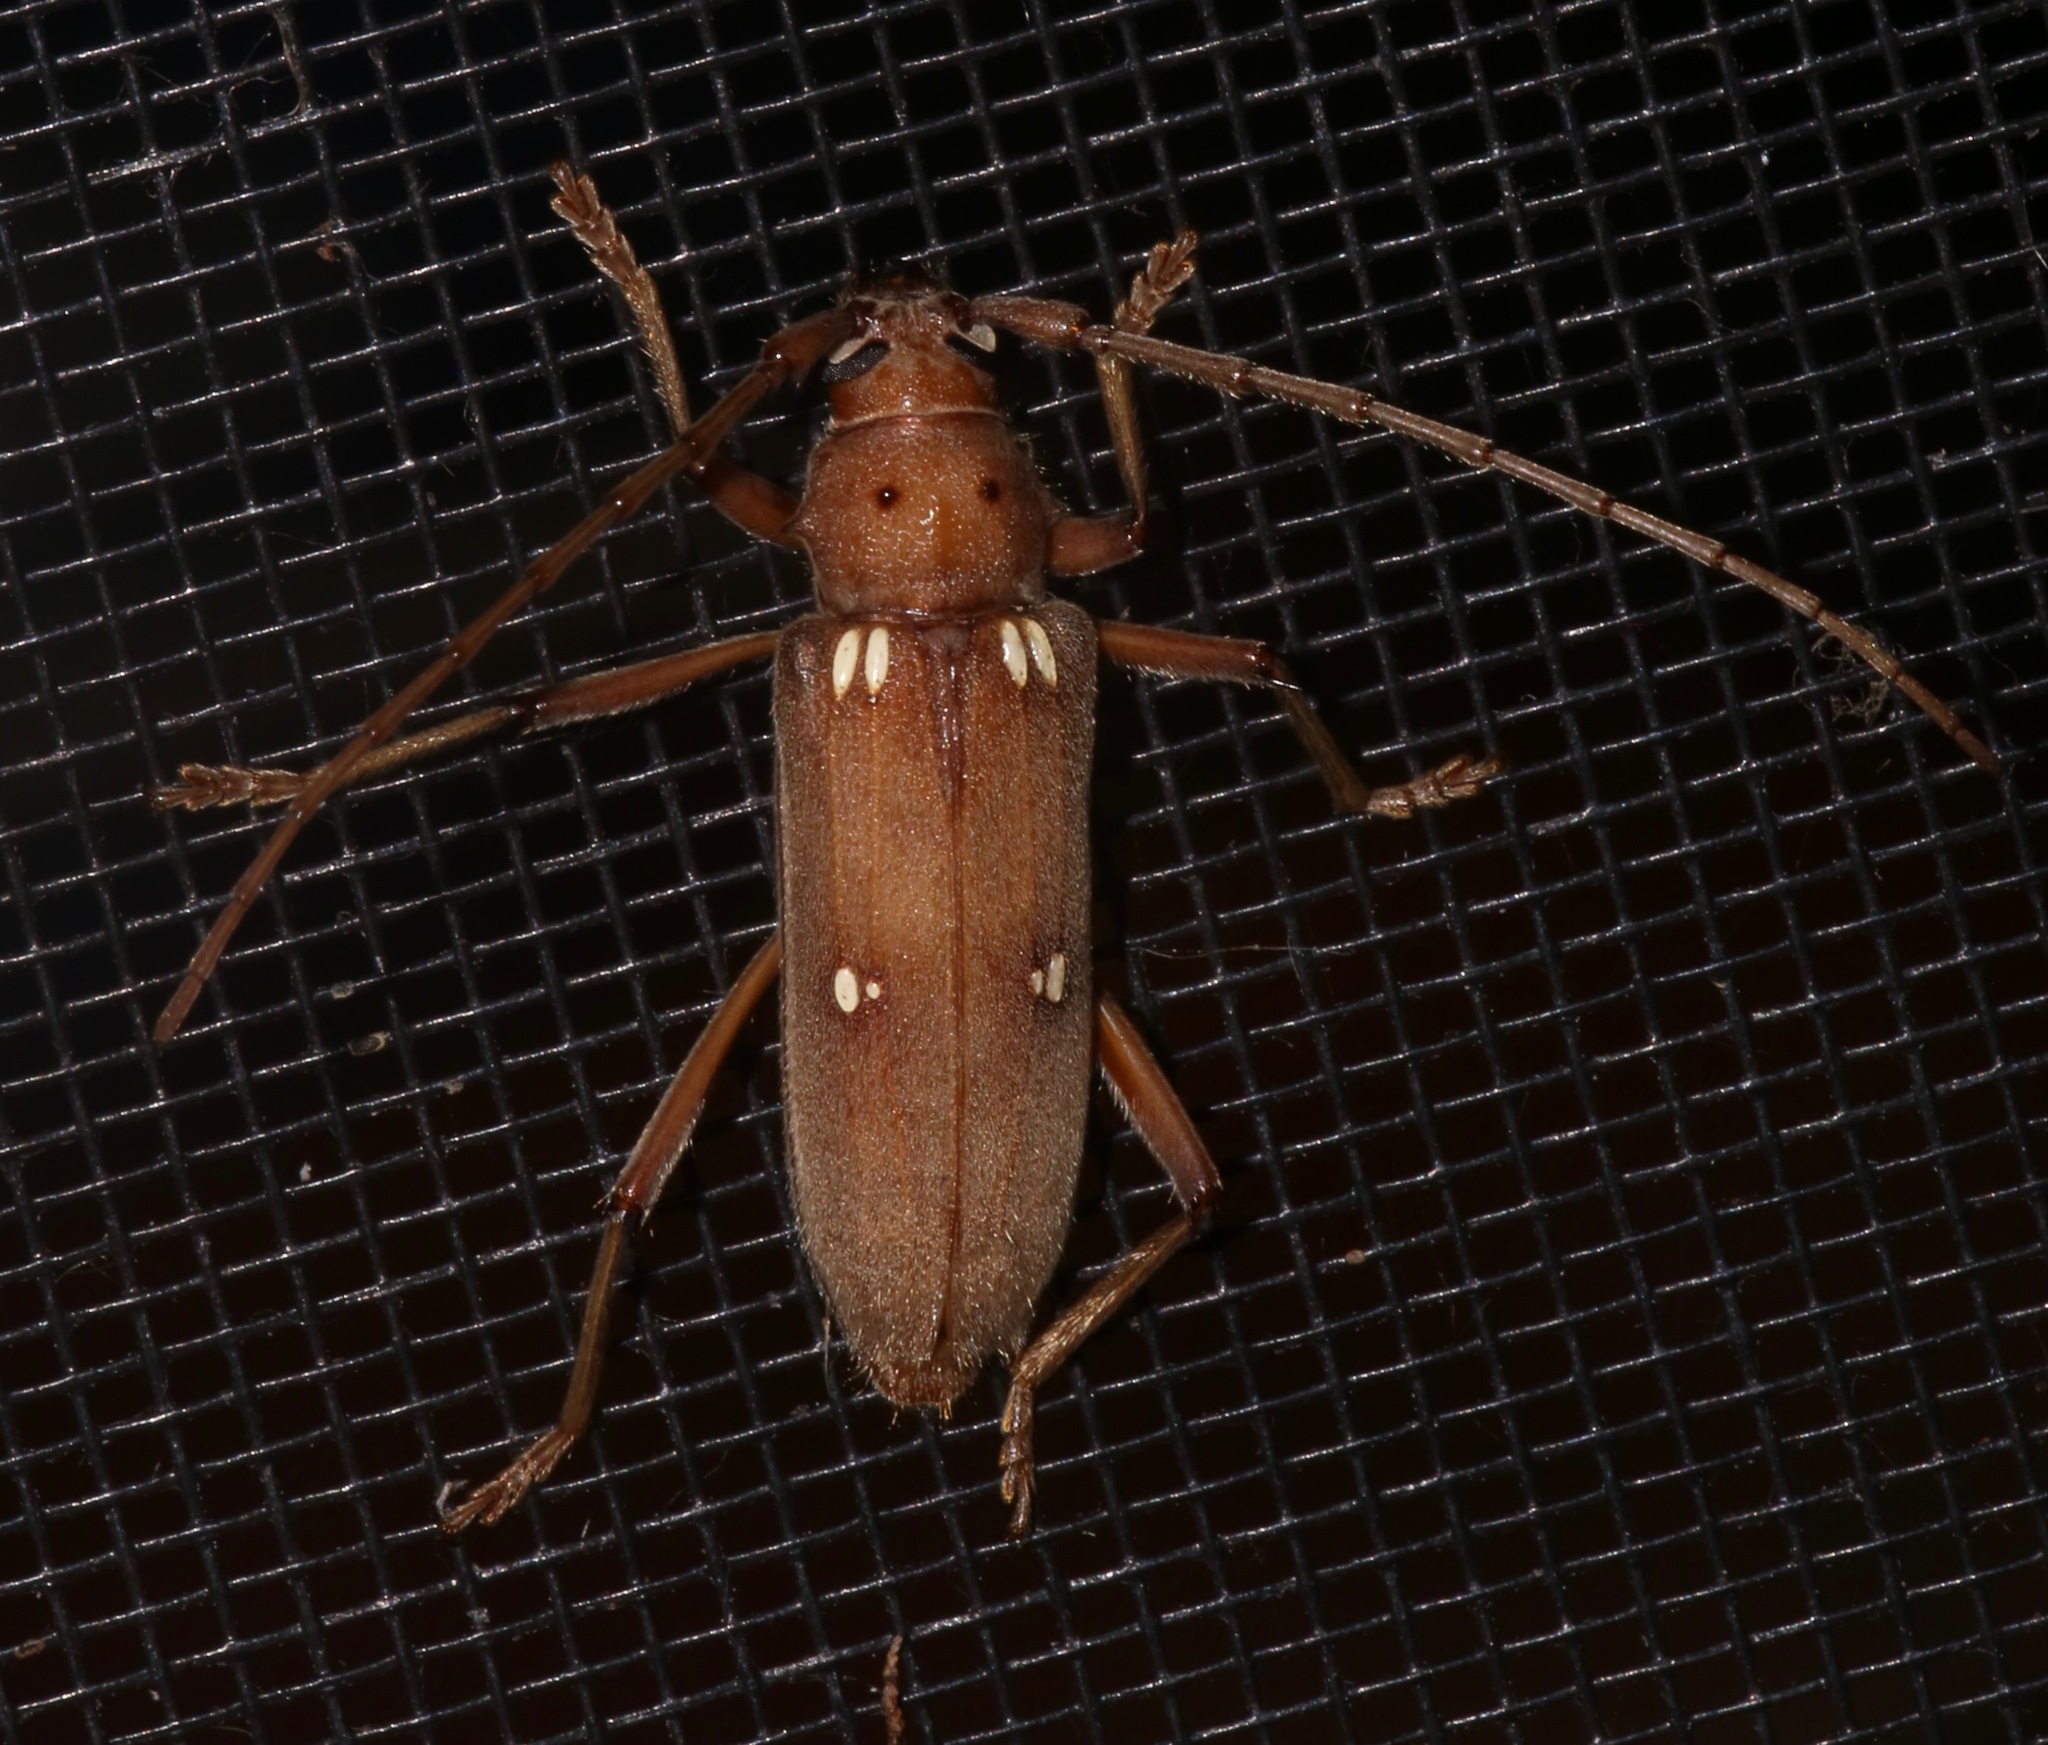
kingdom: Animalia
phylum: Arthropoda
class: Insecta
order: Coleoptera
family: Cerambycidae
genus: Eburia
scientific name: Eburia quadrigeminata
